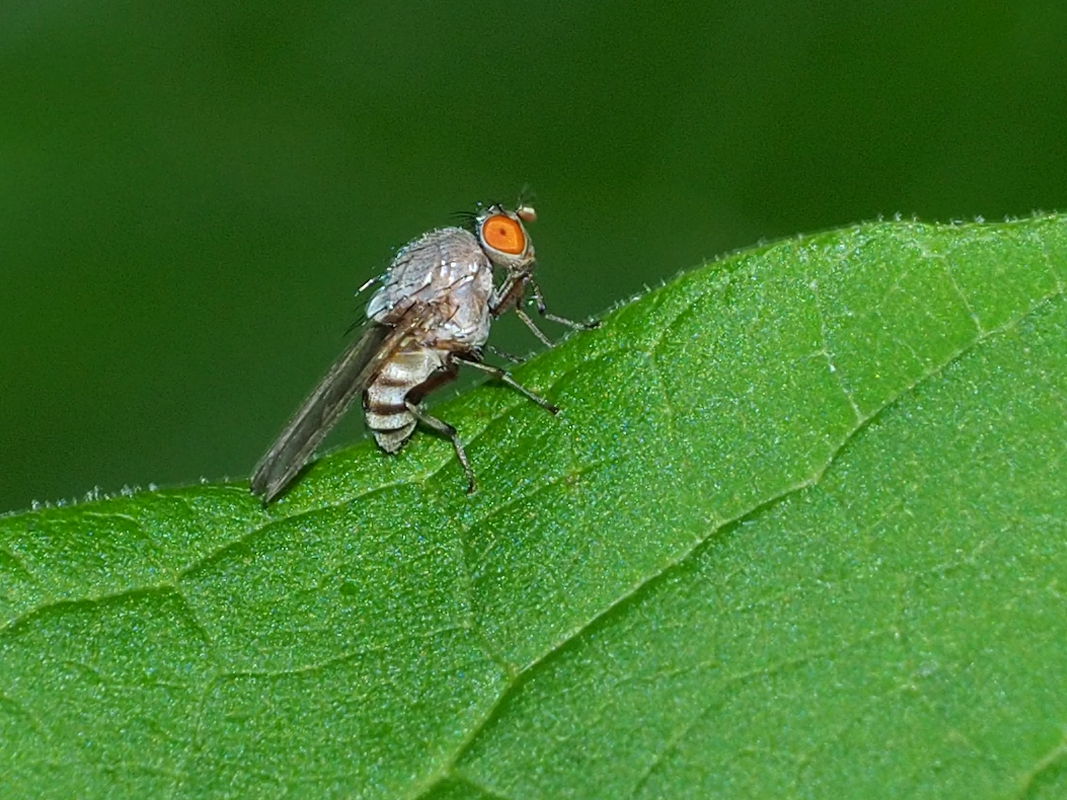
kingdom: Animalia
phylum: Arthropoda
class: Insecta
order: Diptera
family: Lauxaniidae
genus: Minettia
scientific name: Minettia magna
